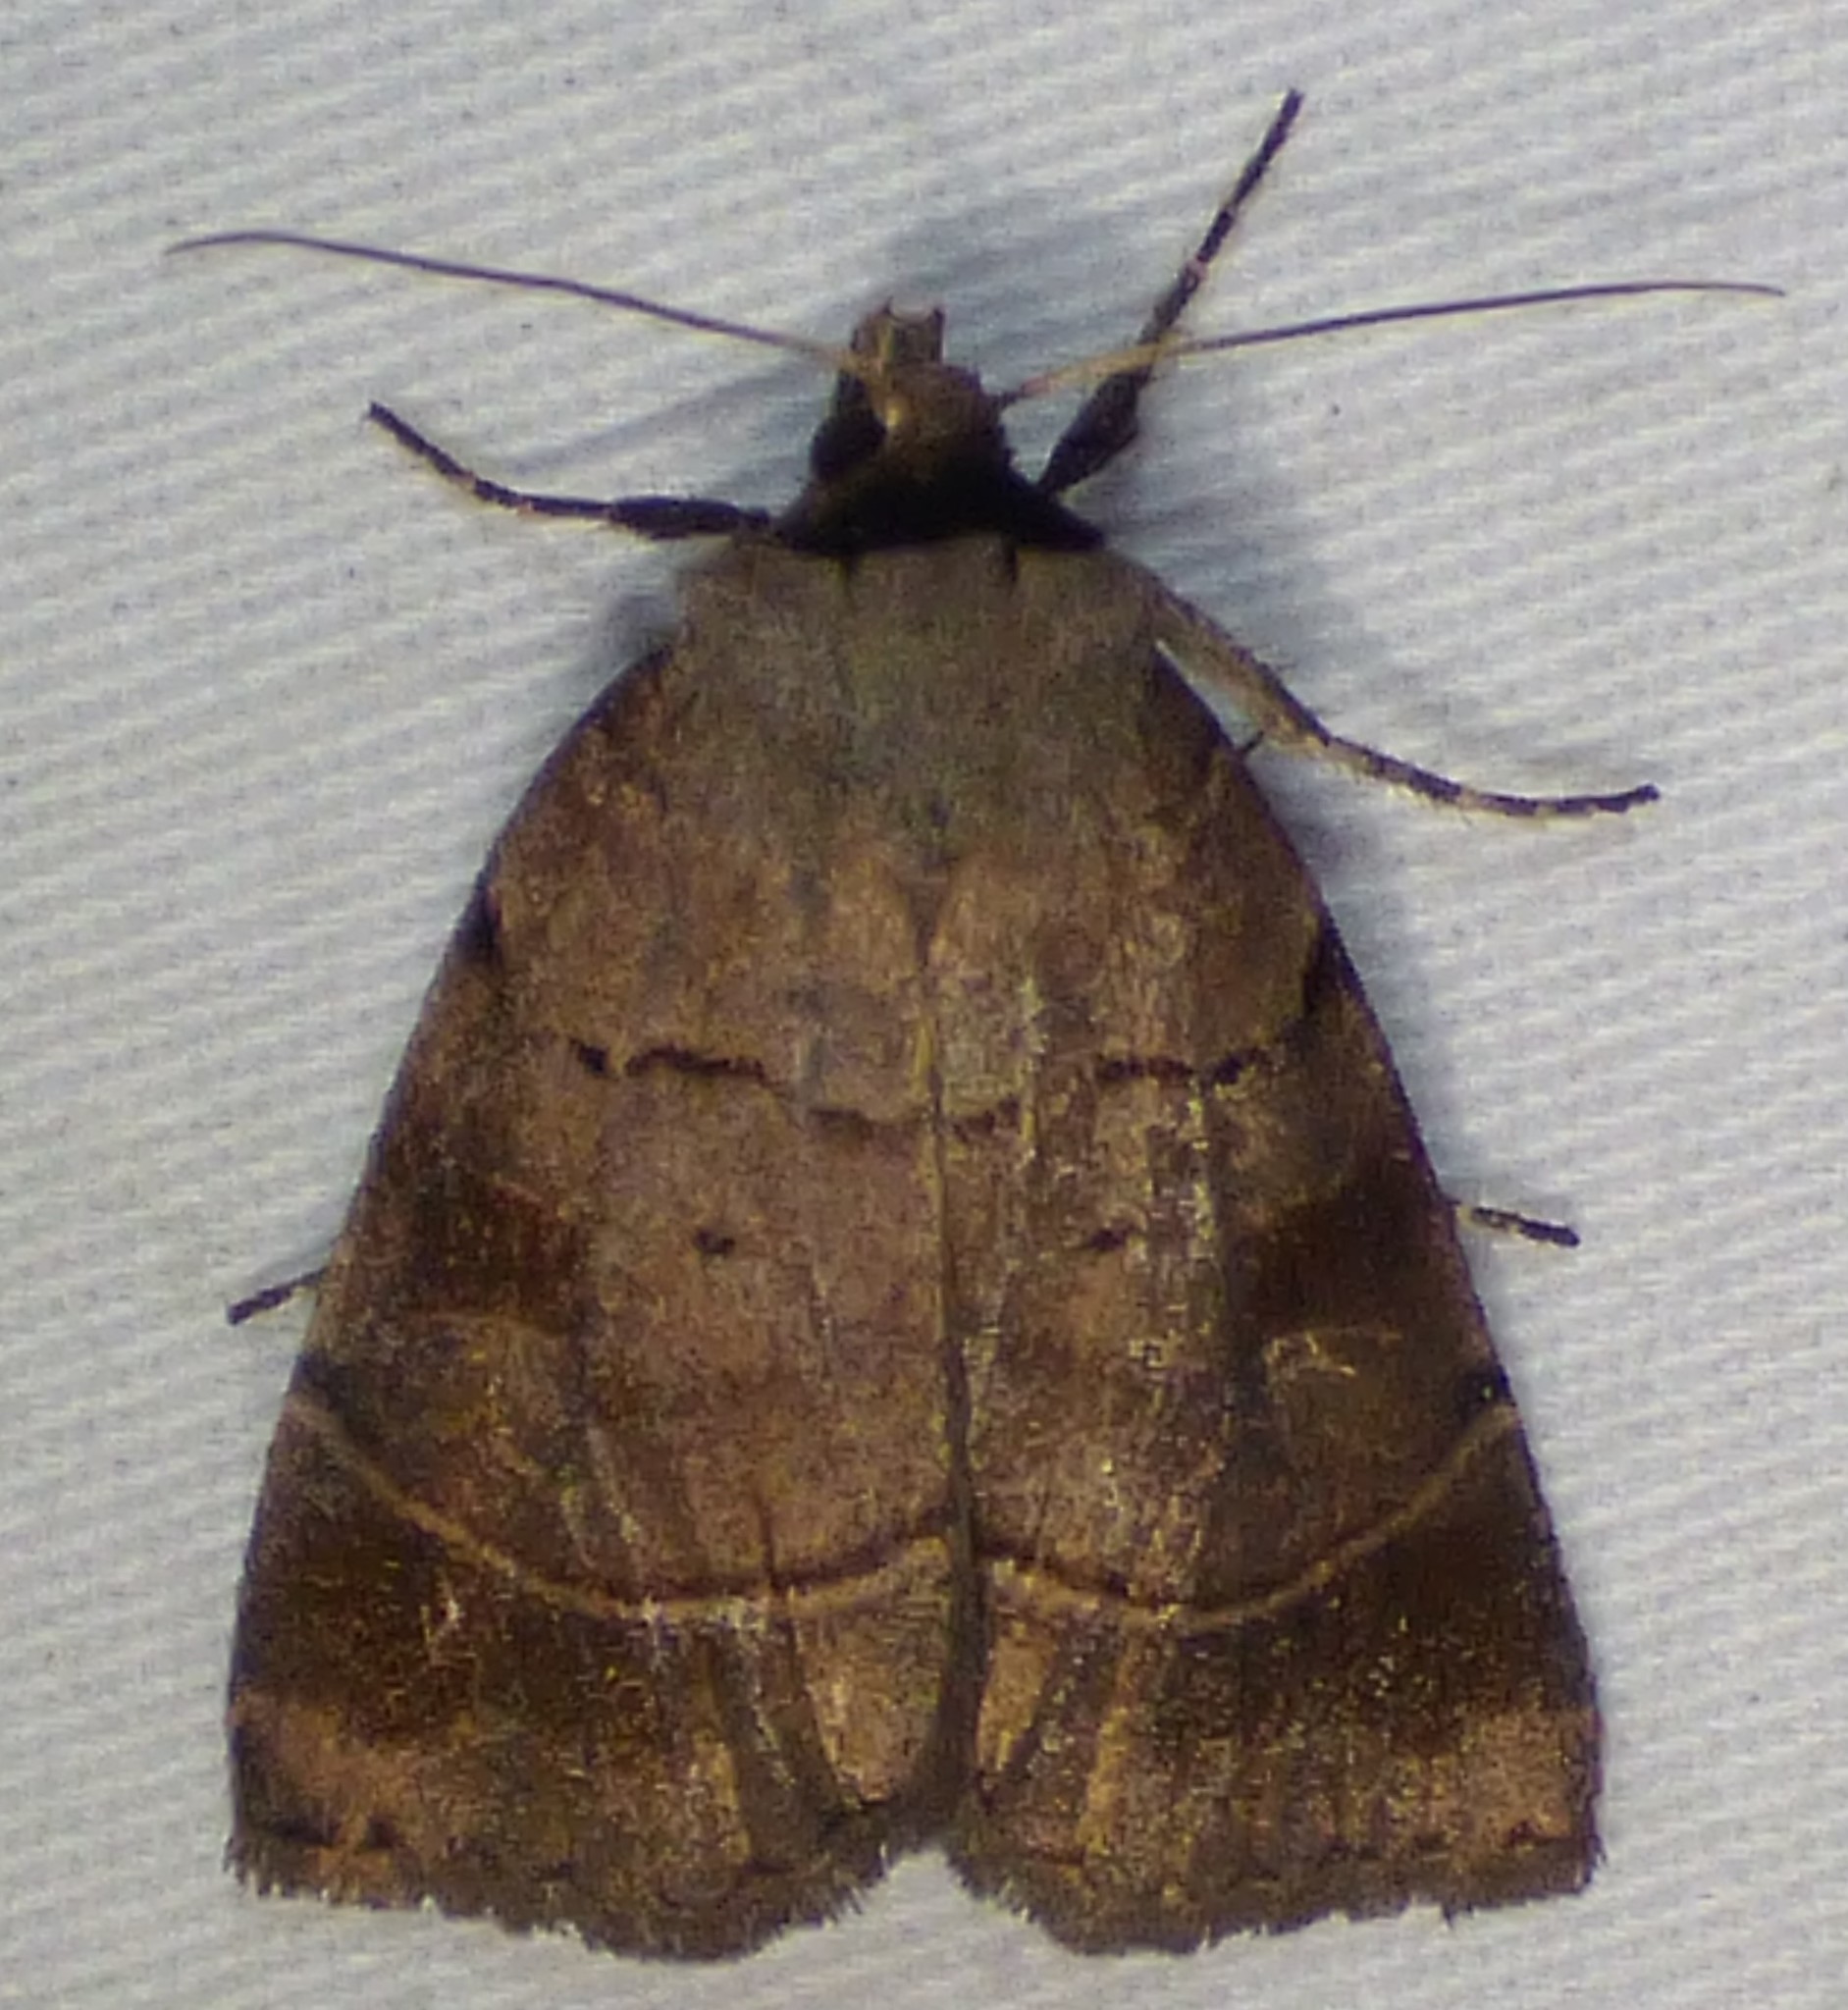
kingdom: Animalia
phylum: Arthropoda
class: Insecta
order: Lepidoptera
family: Noctuidae
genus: Agnorisma
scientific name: Agnorisma badinodis
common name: Pale-banded dart
